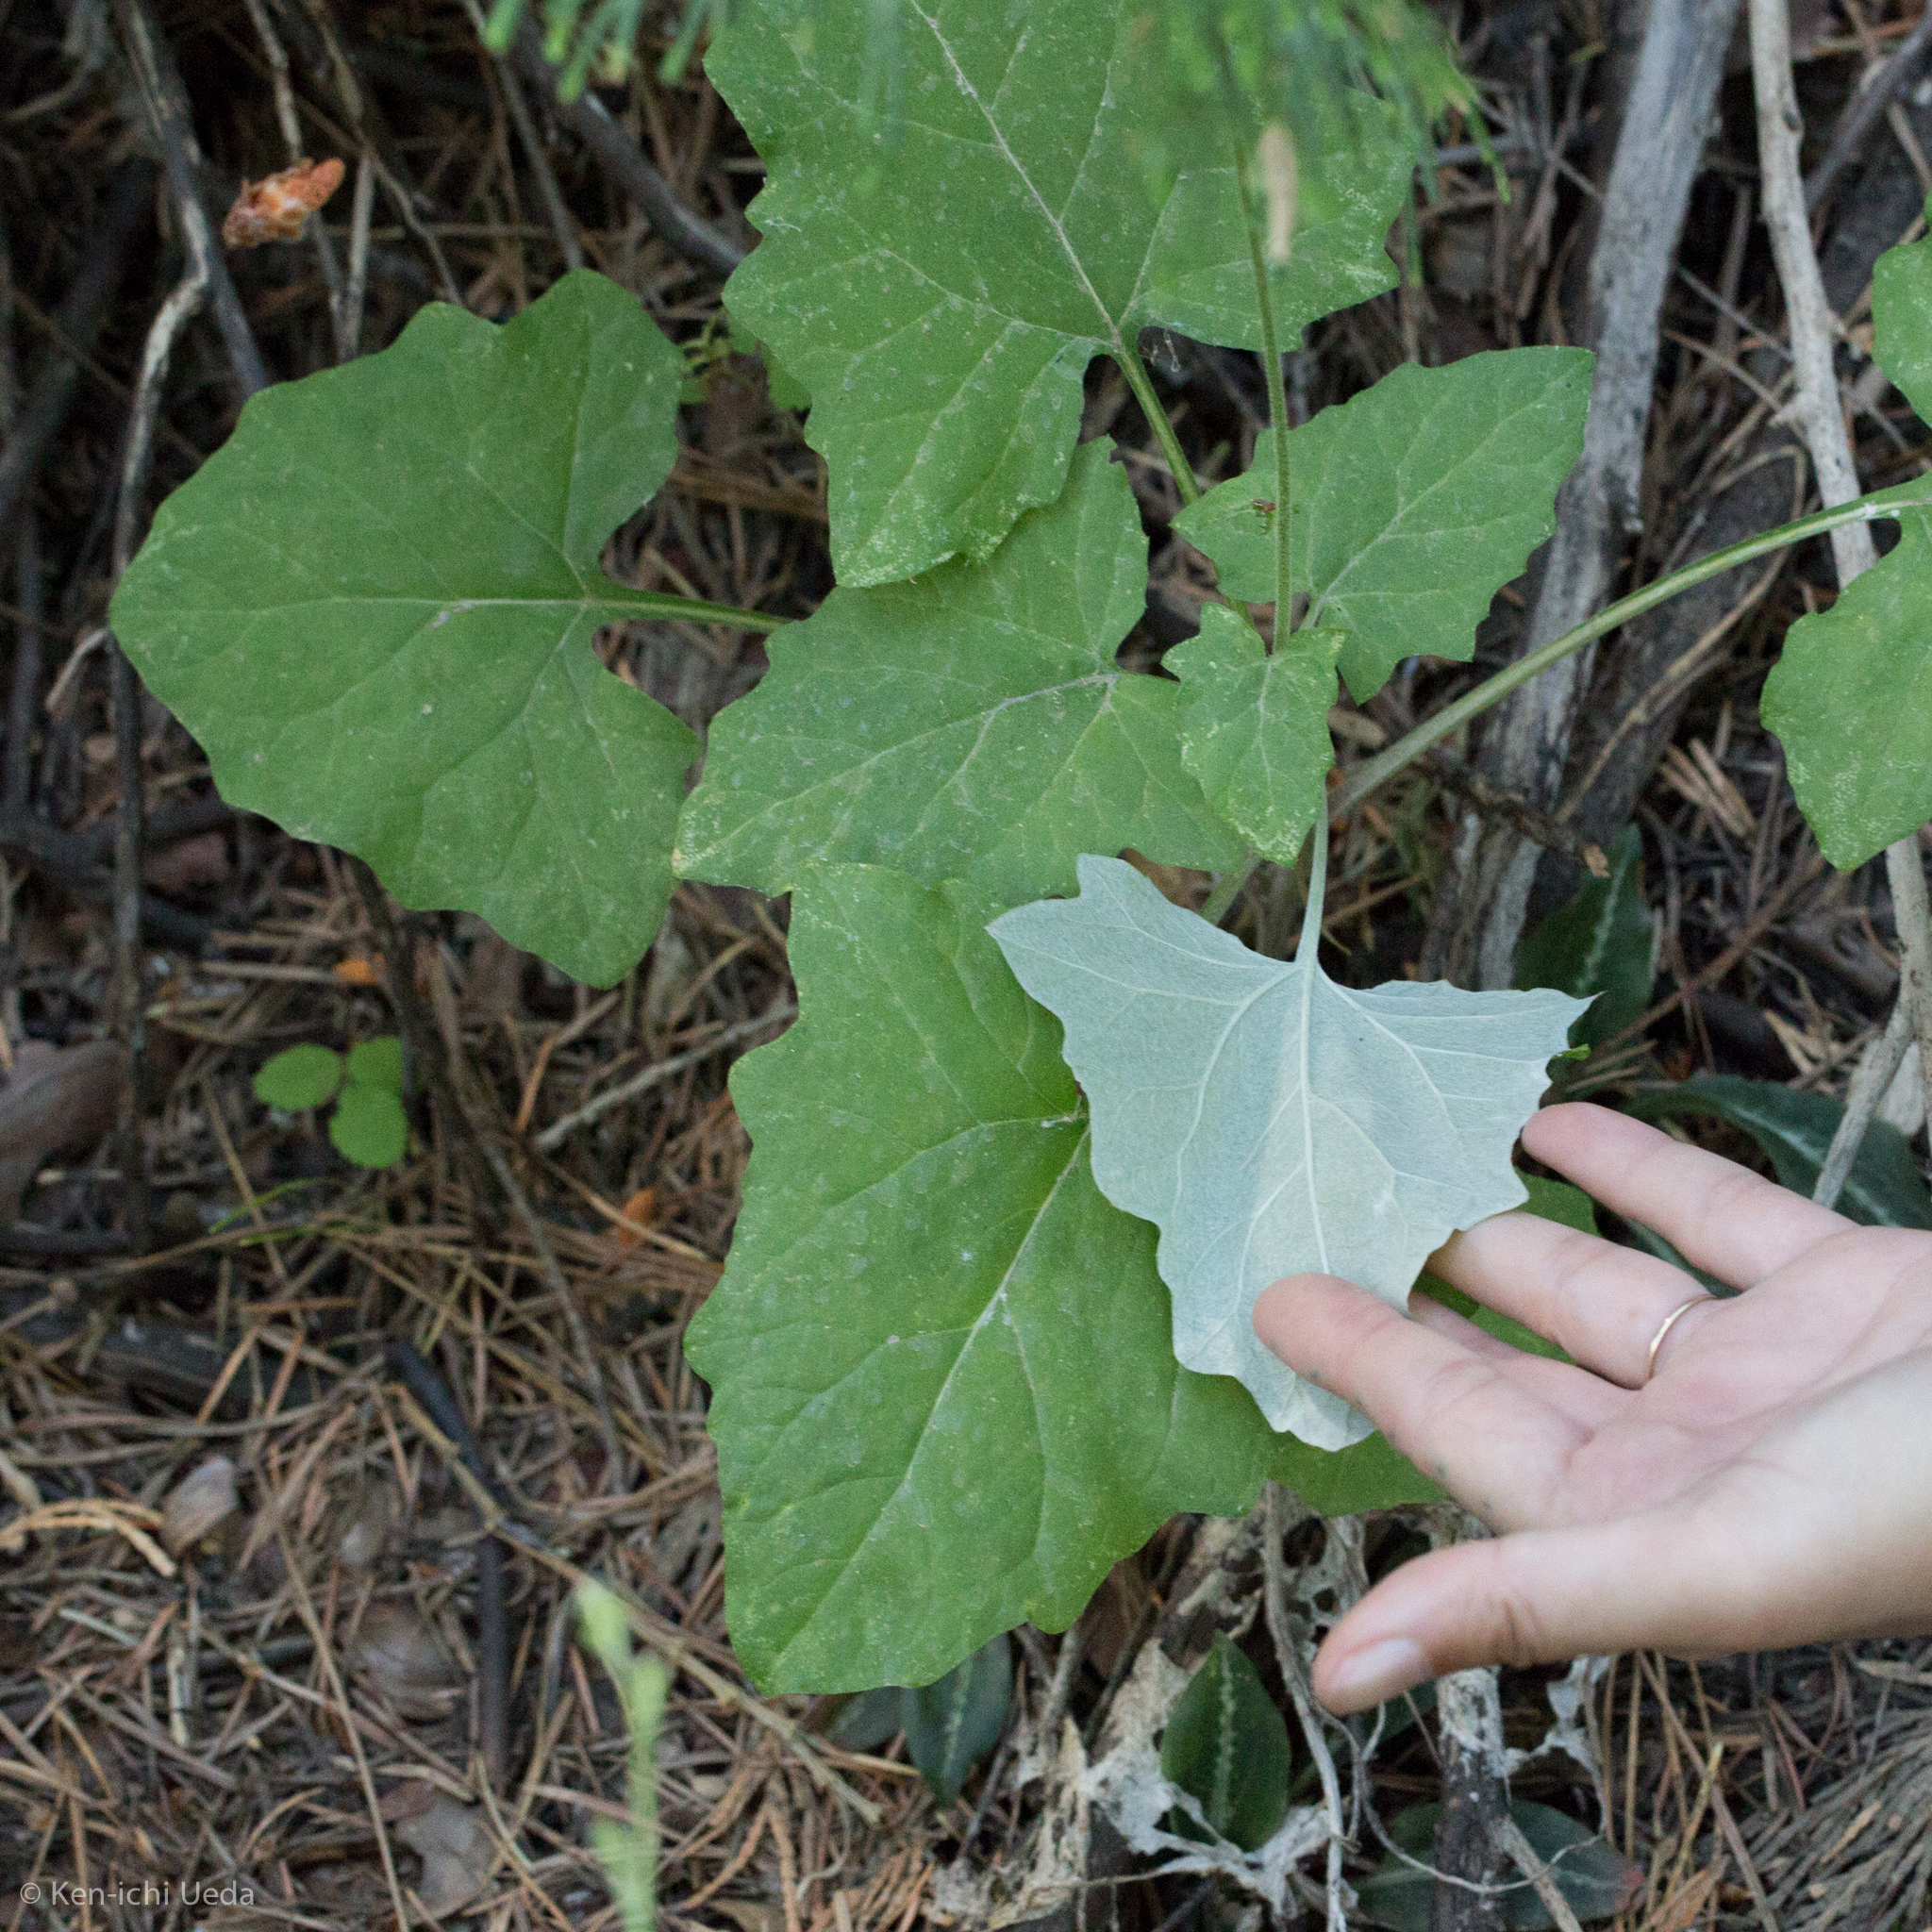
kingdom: Plantae
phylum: Tracheophyta
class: Magnoliopsida
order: Asterales
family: Asteraceae
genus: Adenocaulon
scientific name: Adenocaulon bicolor
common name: Trailplant
